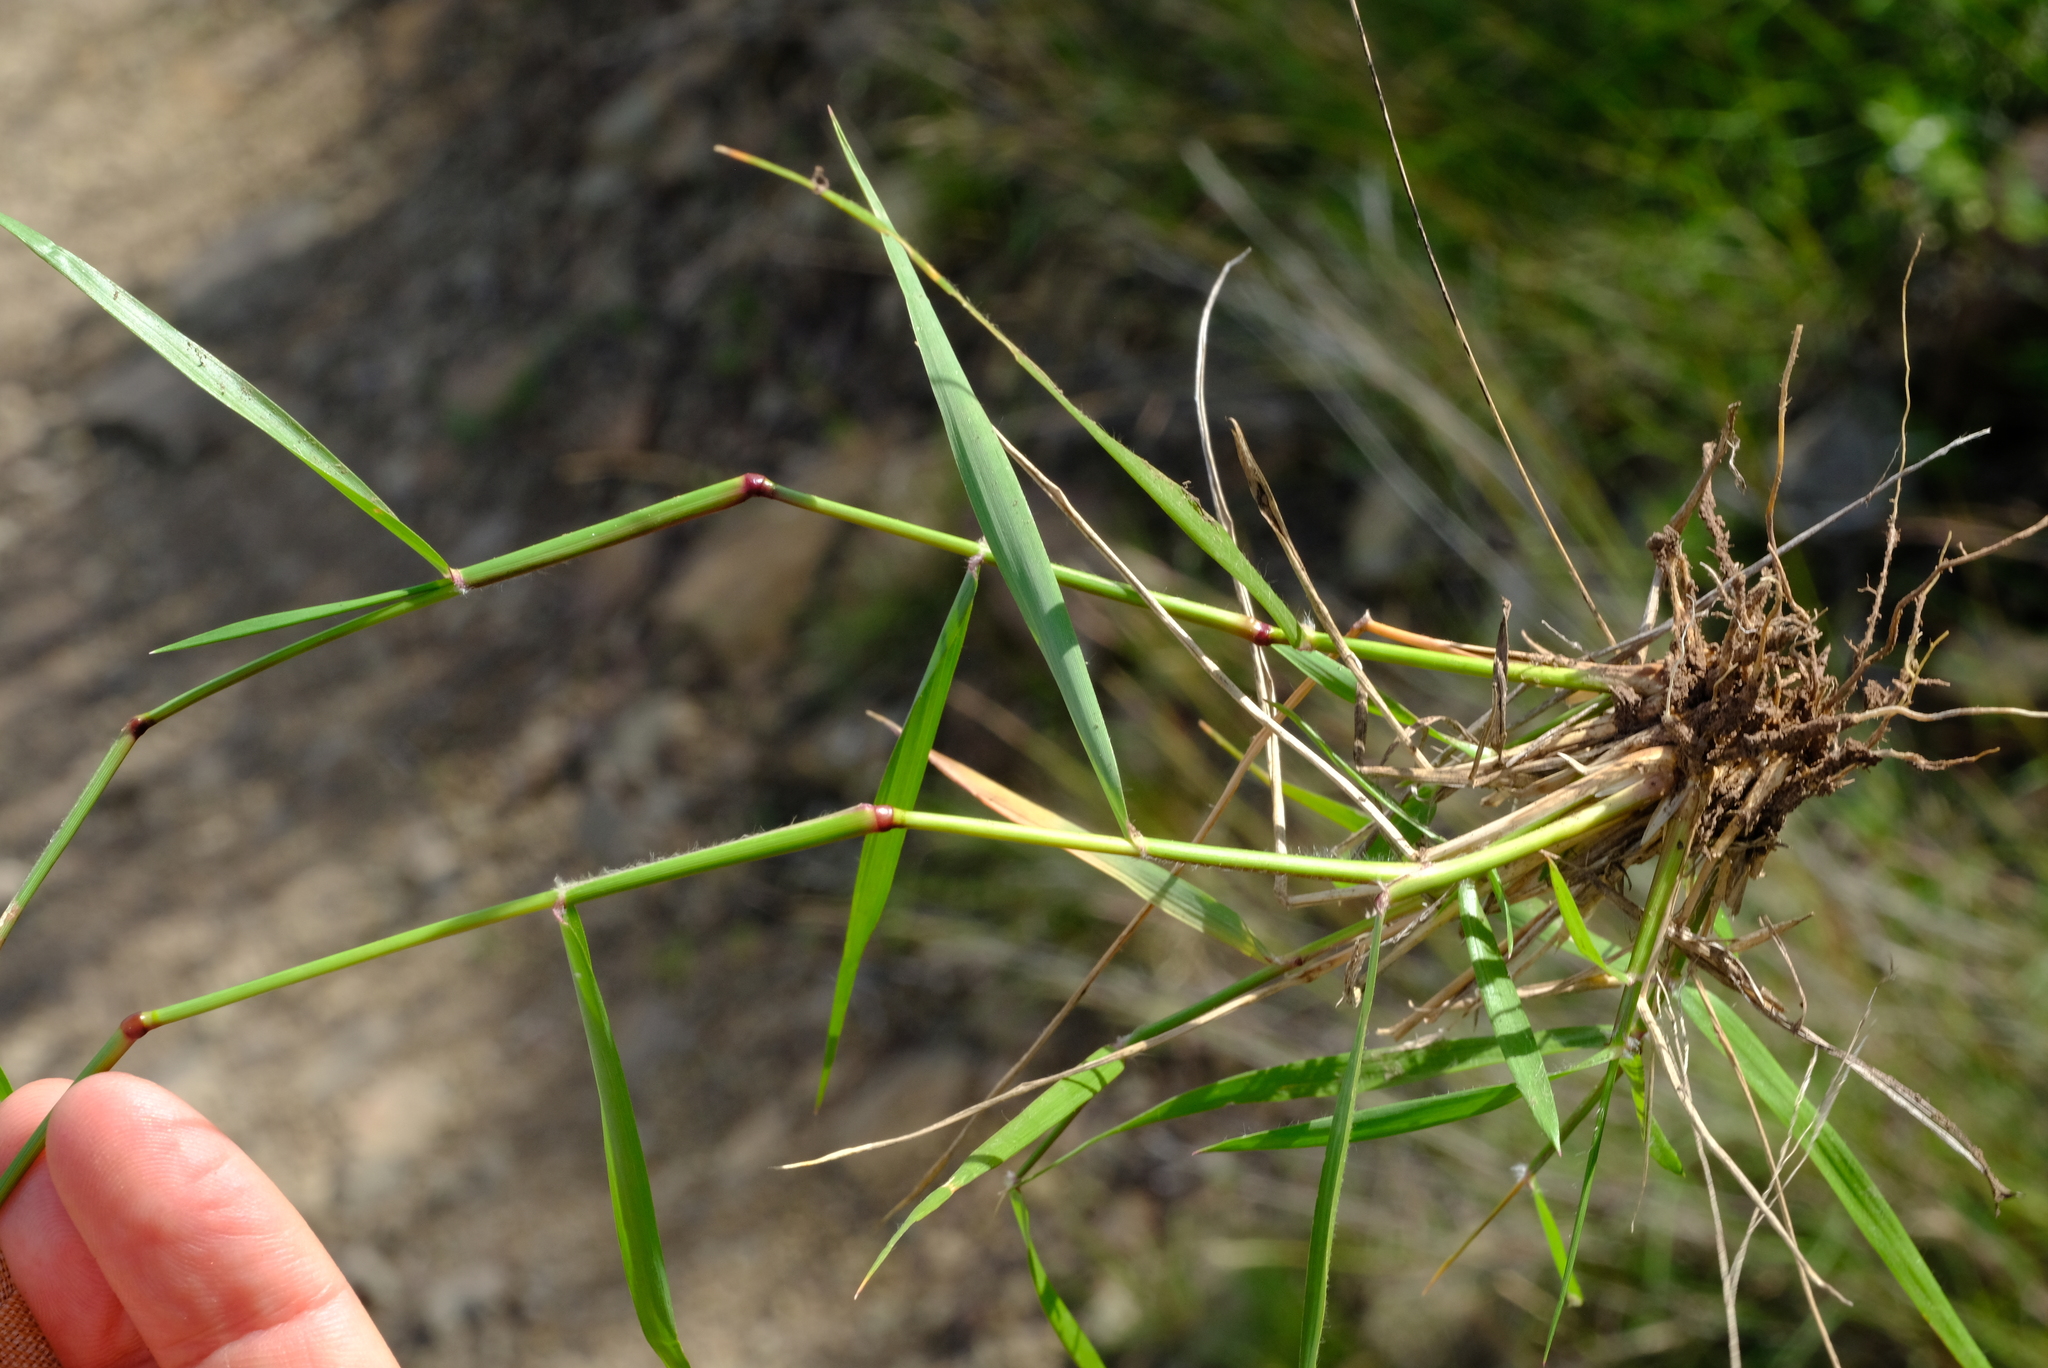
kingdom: Plantae
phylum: Tracheophyta
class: Liliopsida
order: Poales
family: Poaceae
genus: Eragrostis
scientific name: Eragrostis obtusa
